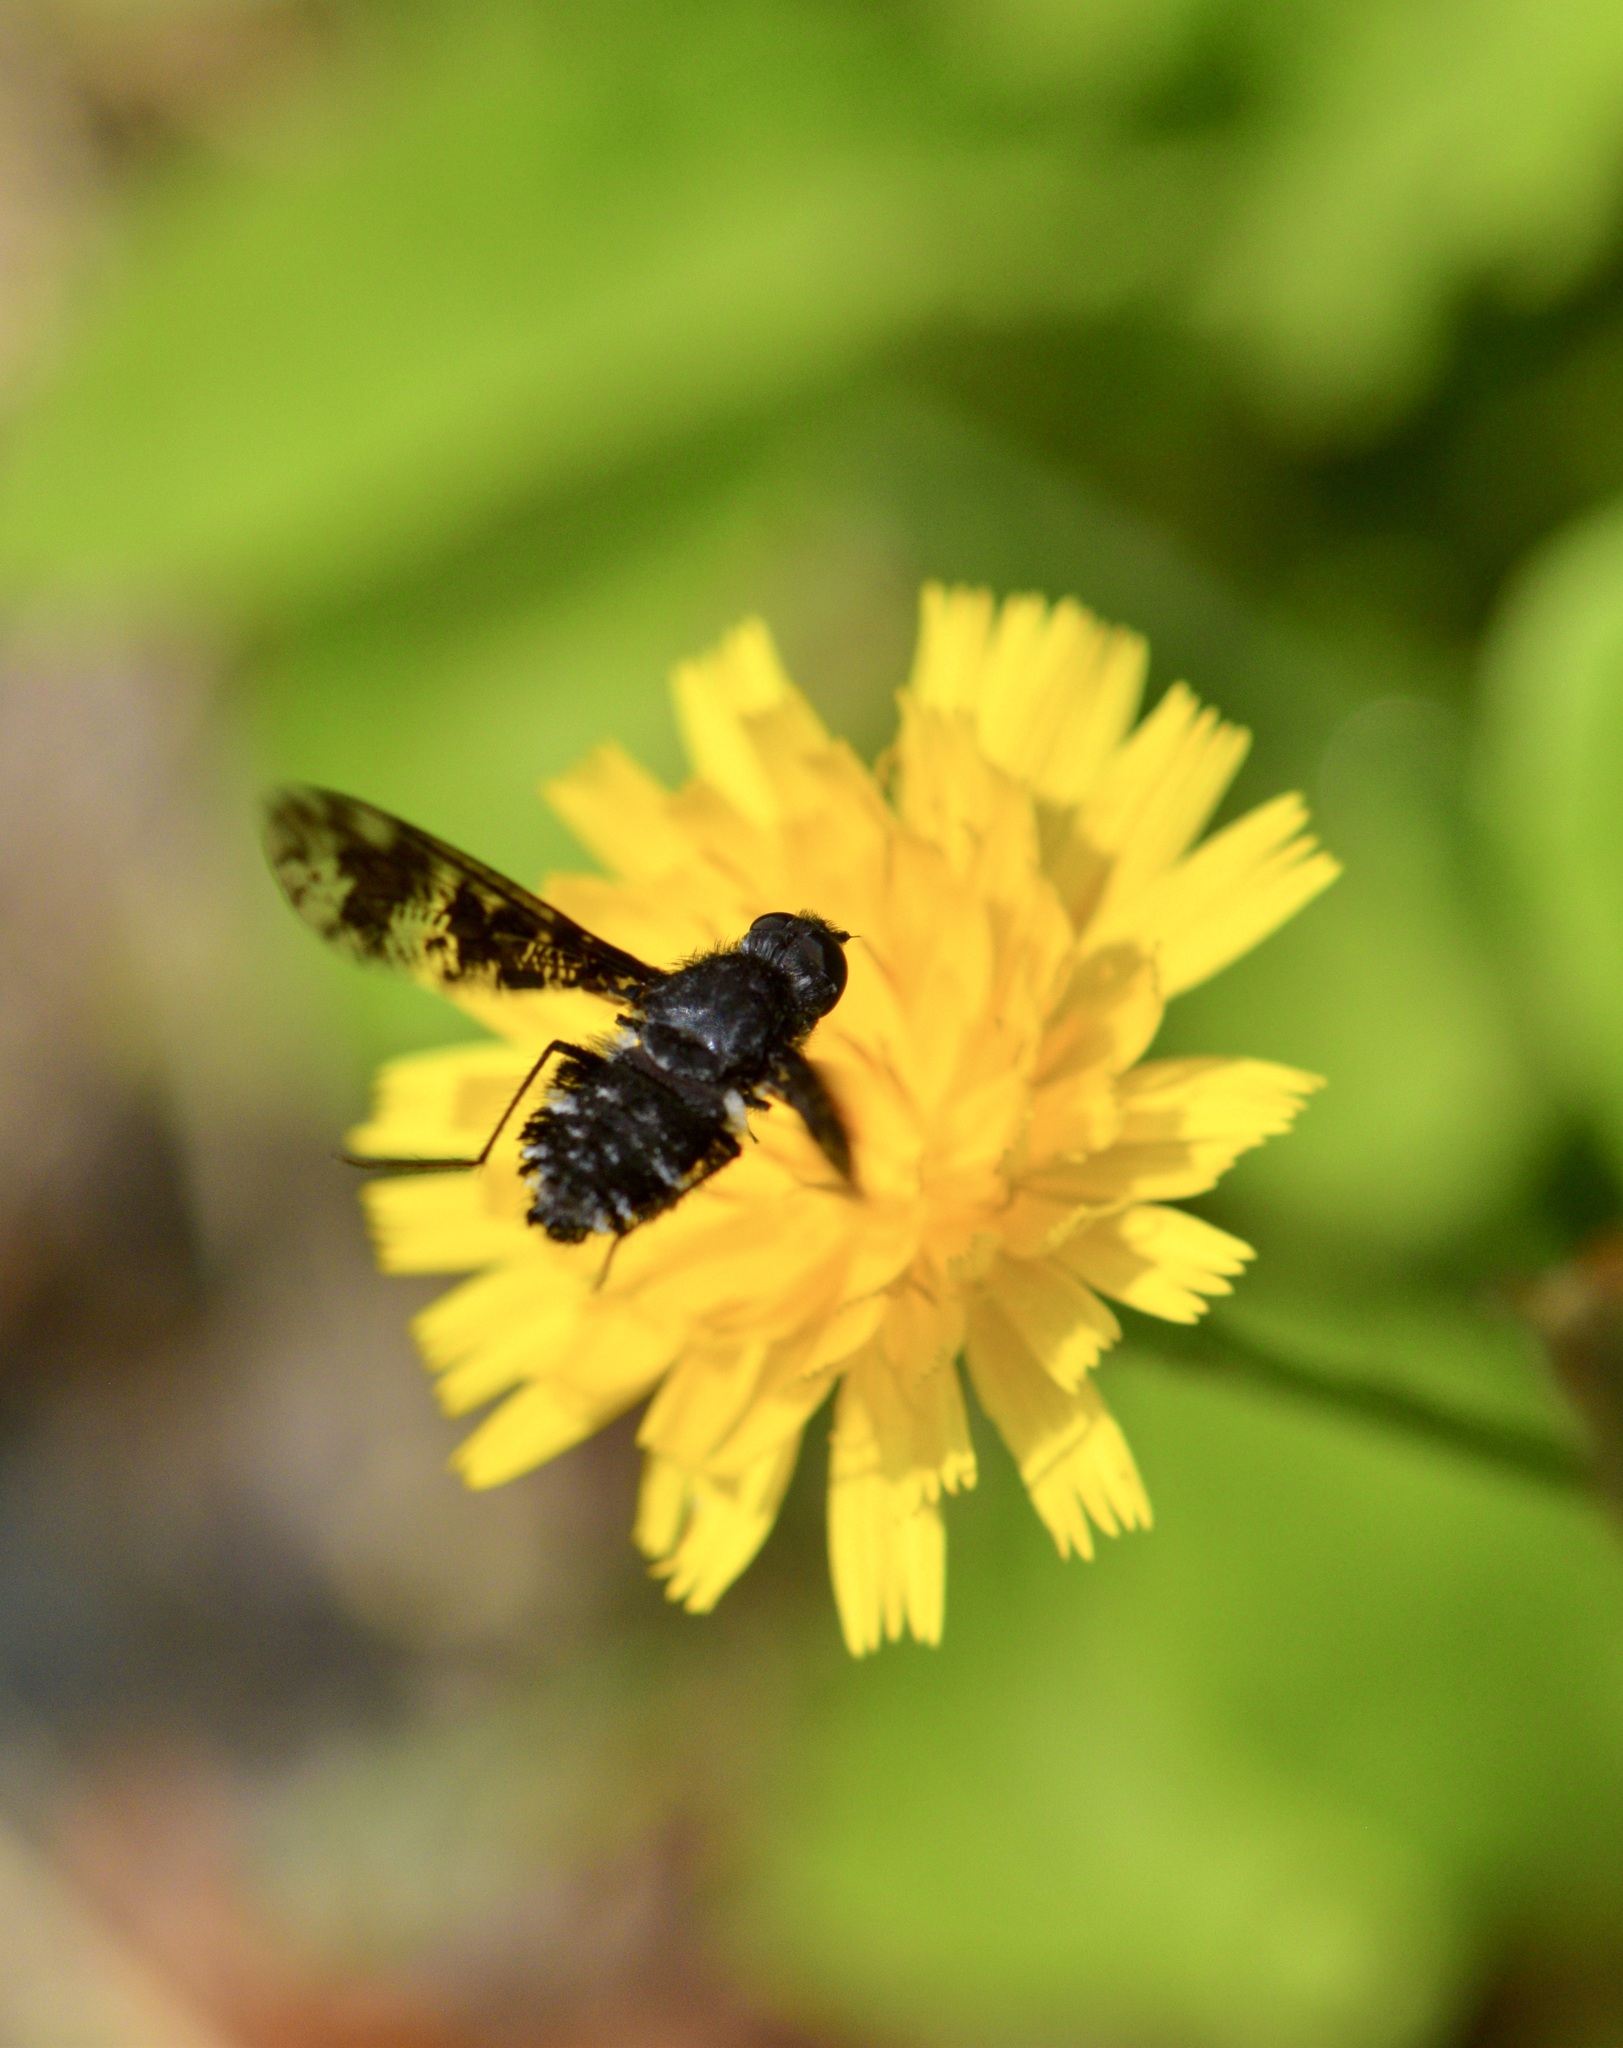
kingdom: Animalia
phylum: Arthropoda
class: Insecta
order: Diptera
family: Bombyliidae
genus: Anthrax
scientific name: Anthrax irroratus
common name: Spotted bee fly
